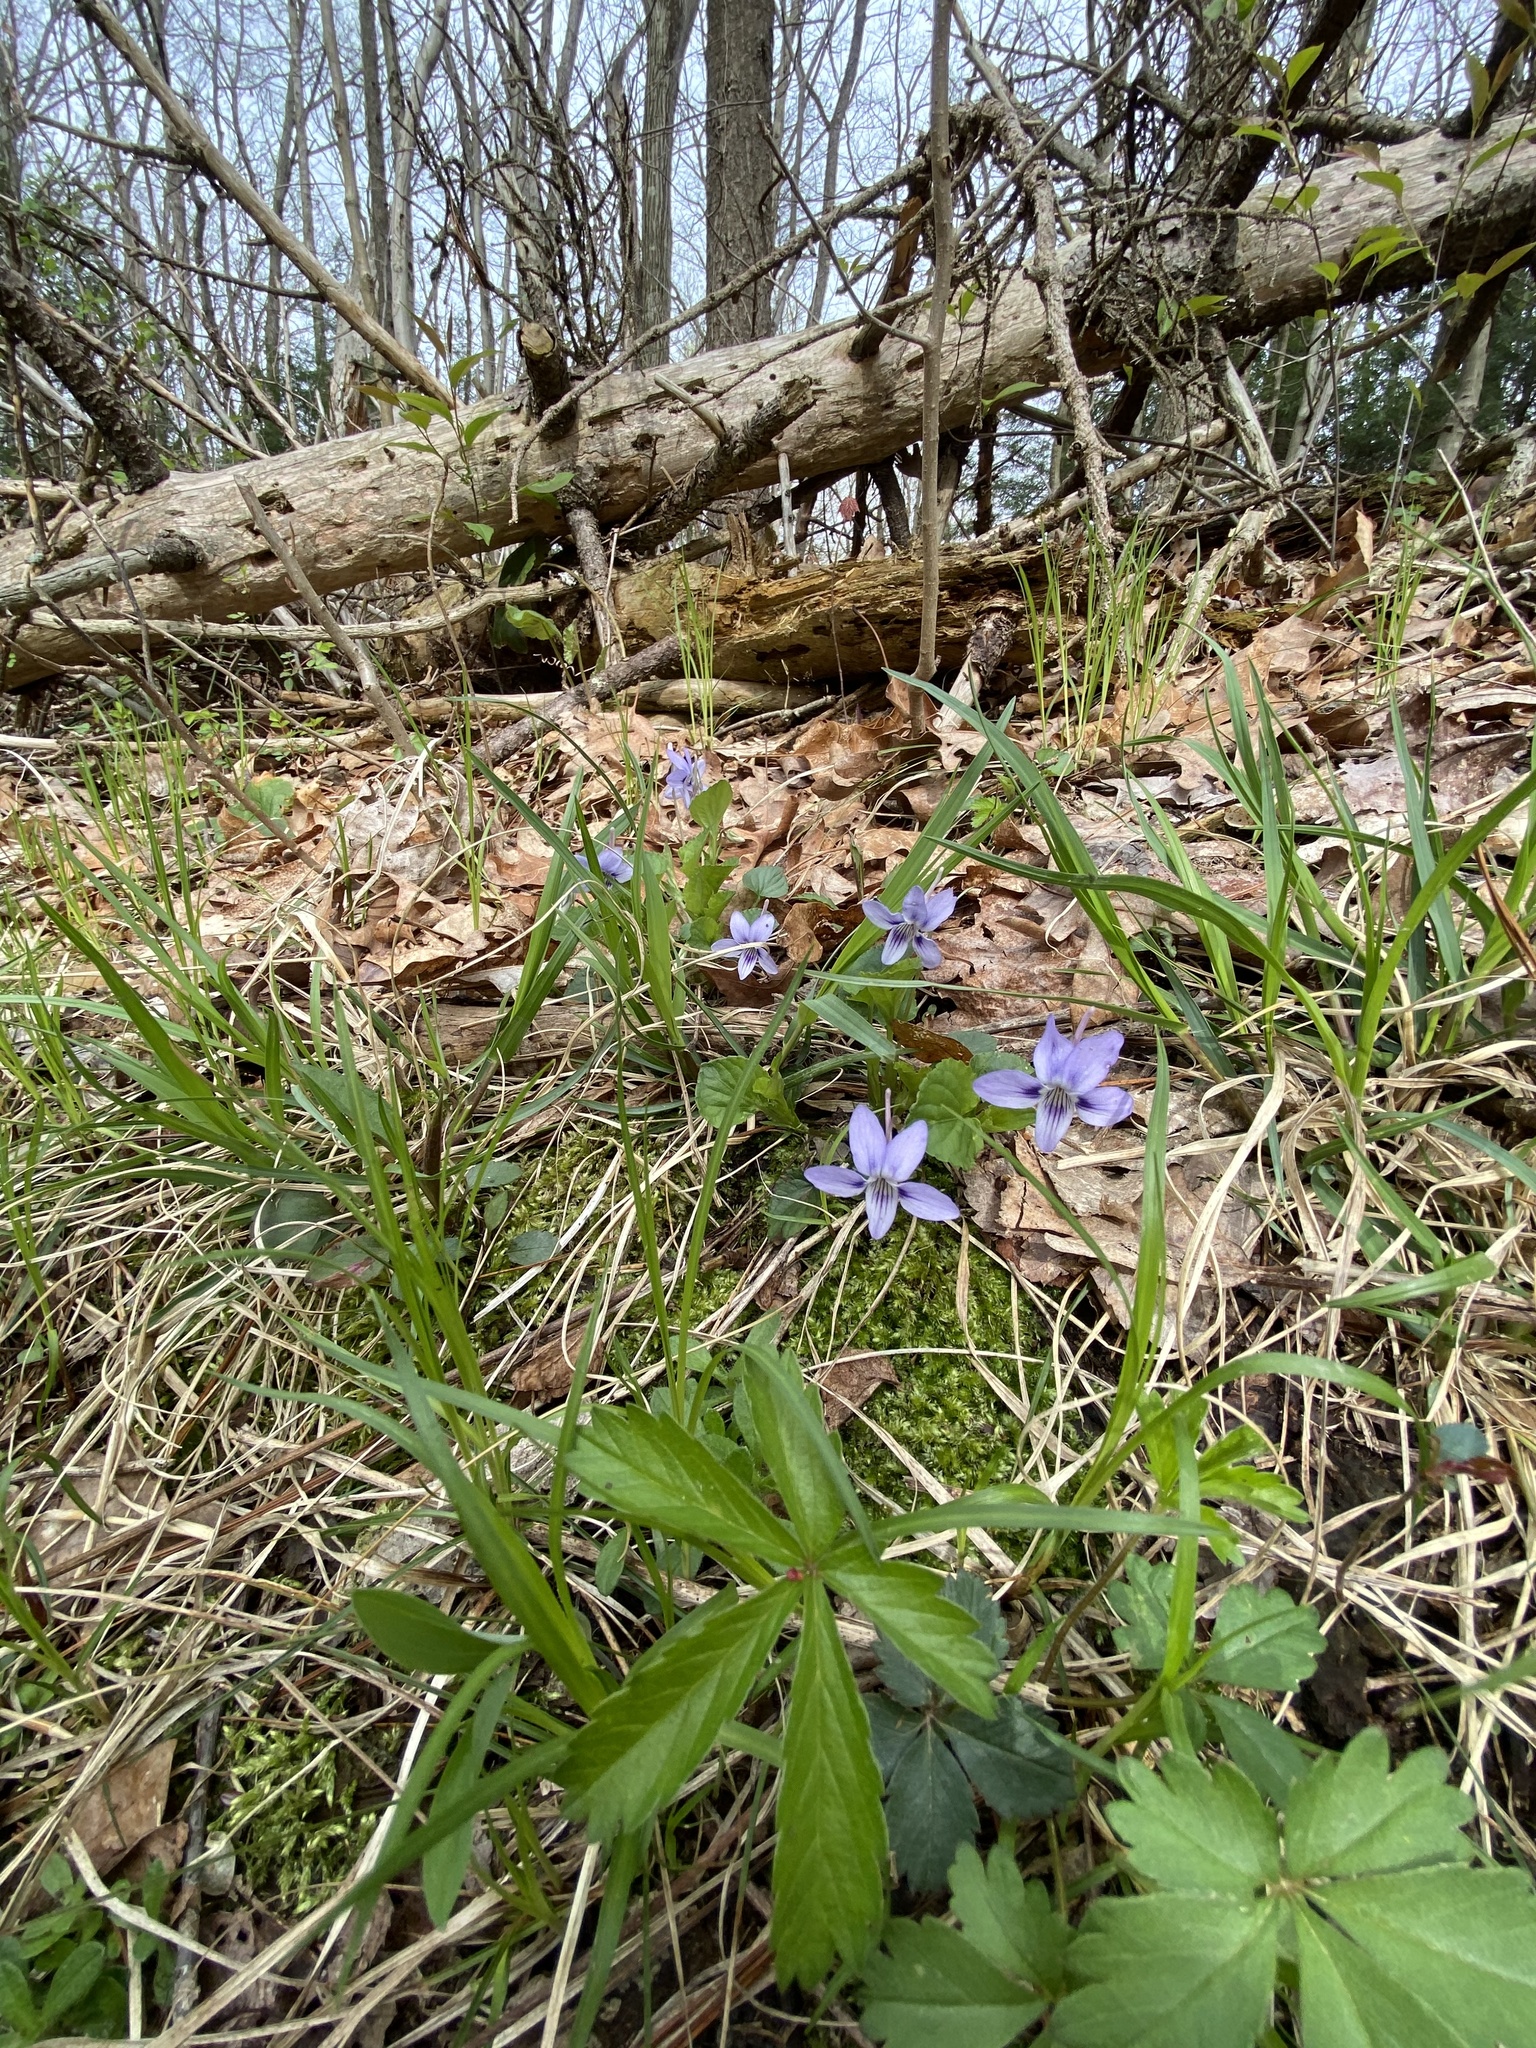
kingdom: Plantae
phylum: Tracheophyta
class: Magnoliopsida
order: Malpighiales
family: Violaceae
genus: Viola
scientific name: Viola rostrata
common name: Long-spur violet
